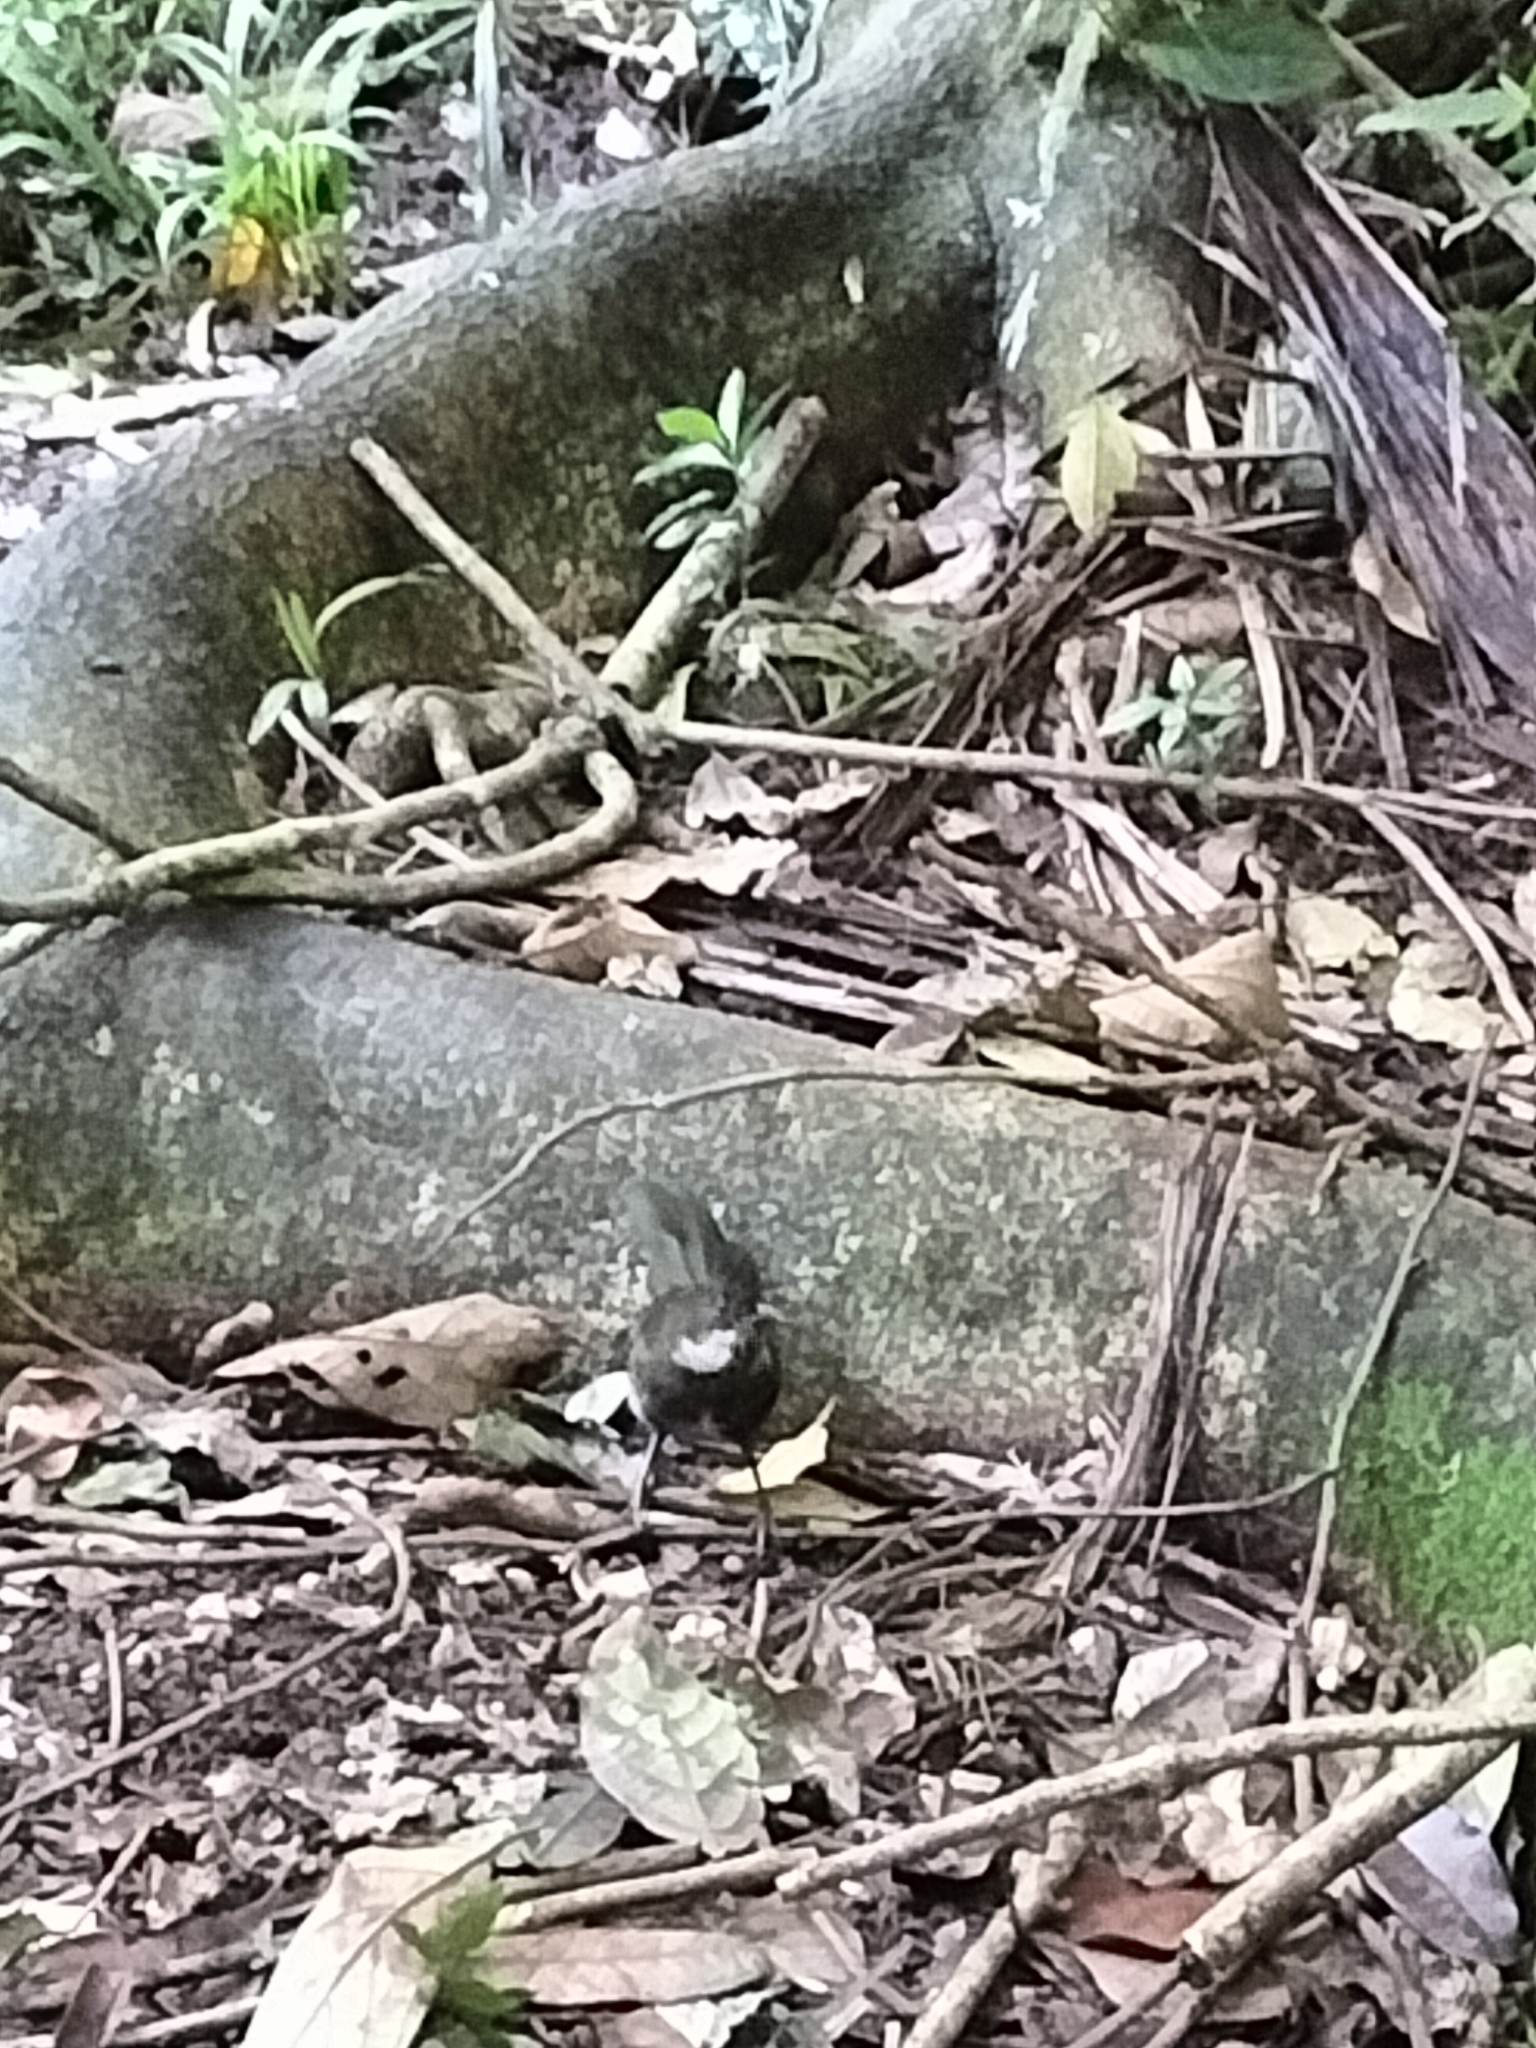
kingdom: Animalia
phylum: Chordata
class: Aves
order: Passeriformes
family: Psophodidae
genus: Psophodes
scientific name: Psophodes olivaceus
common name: Eastern whipbird
